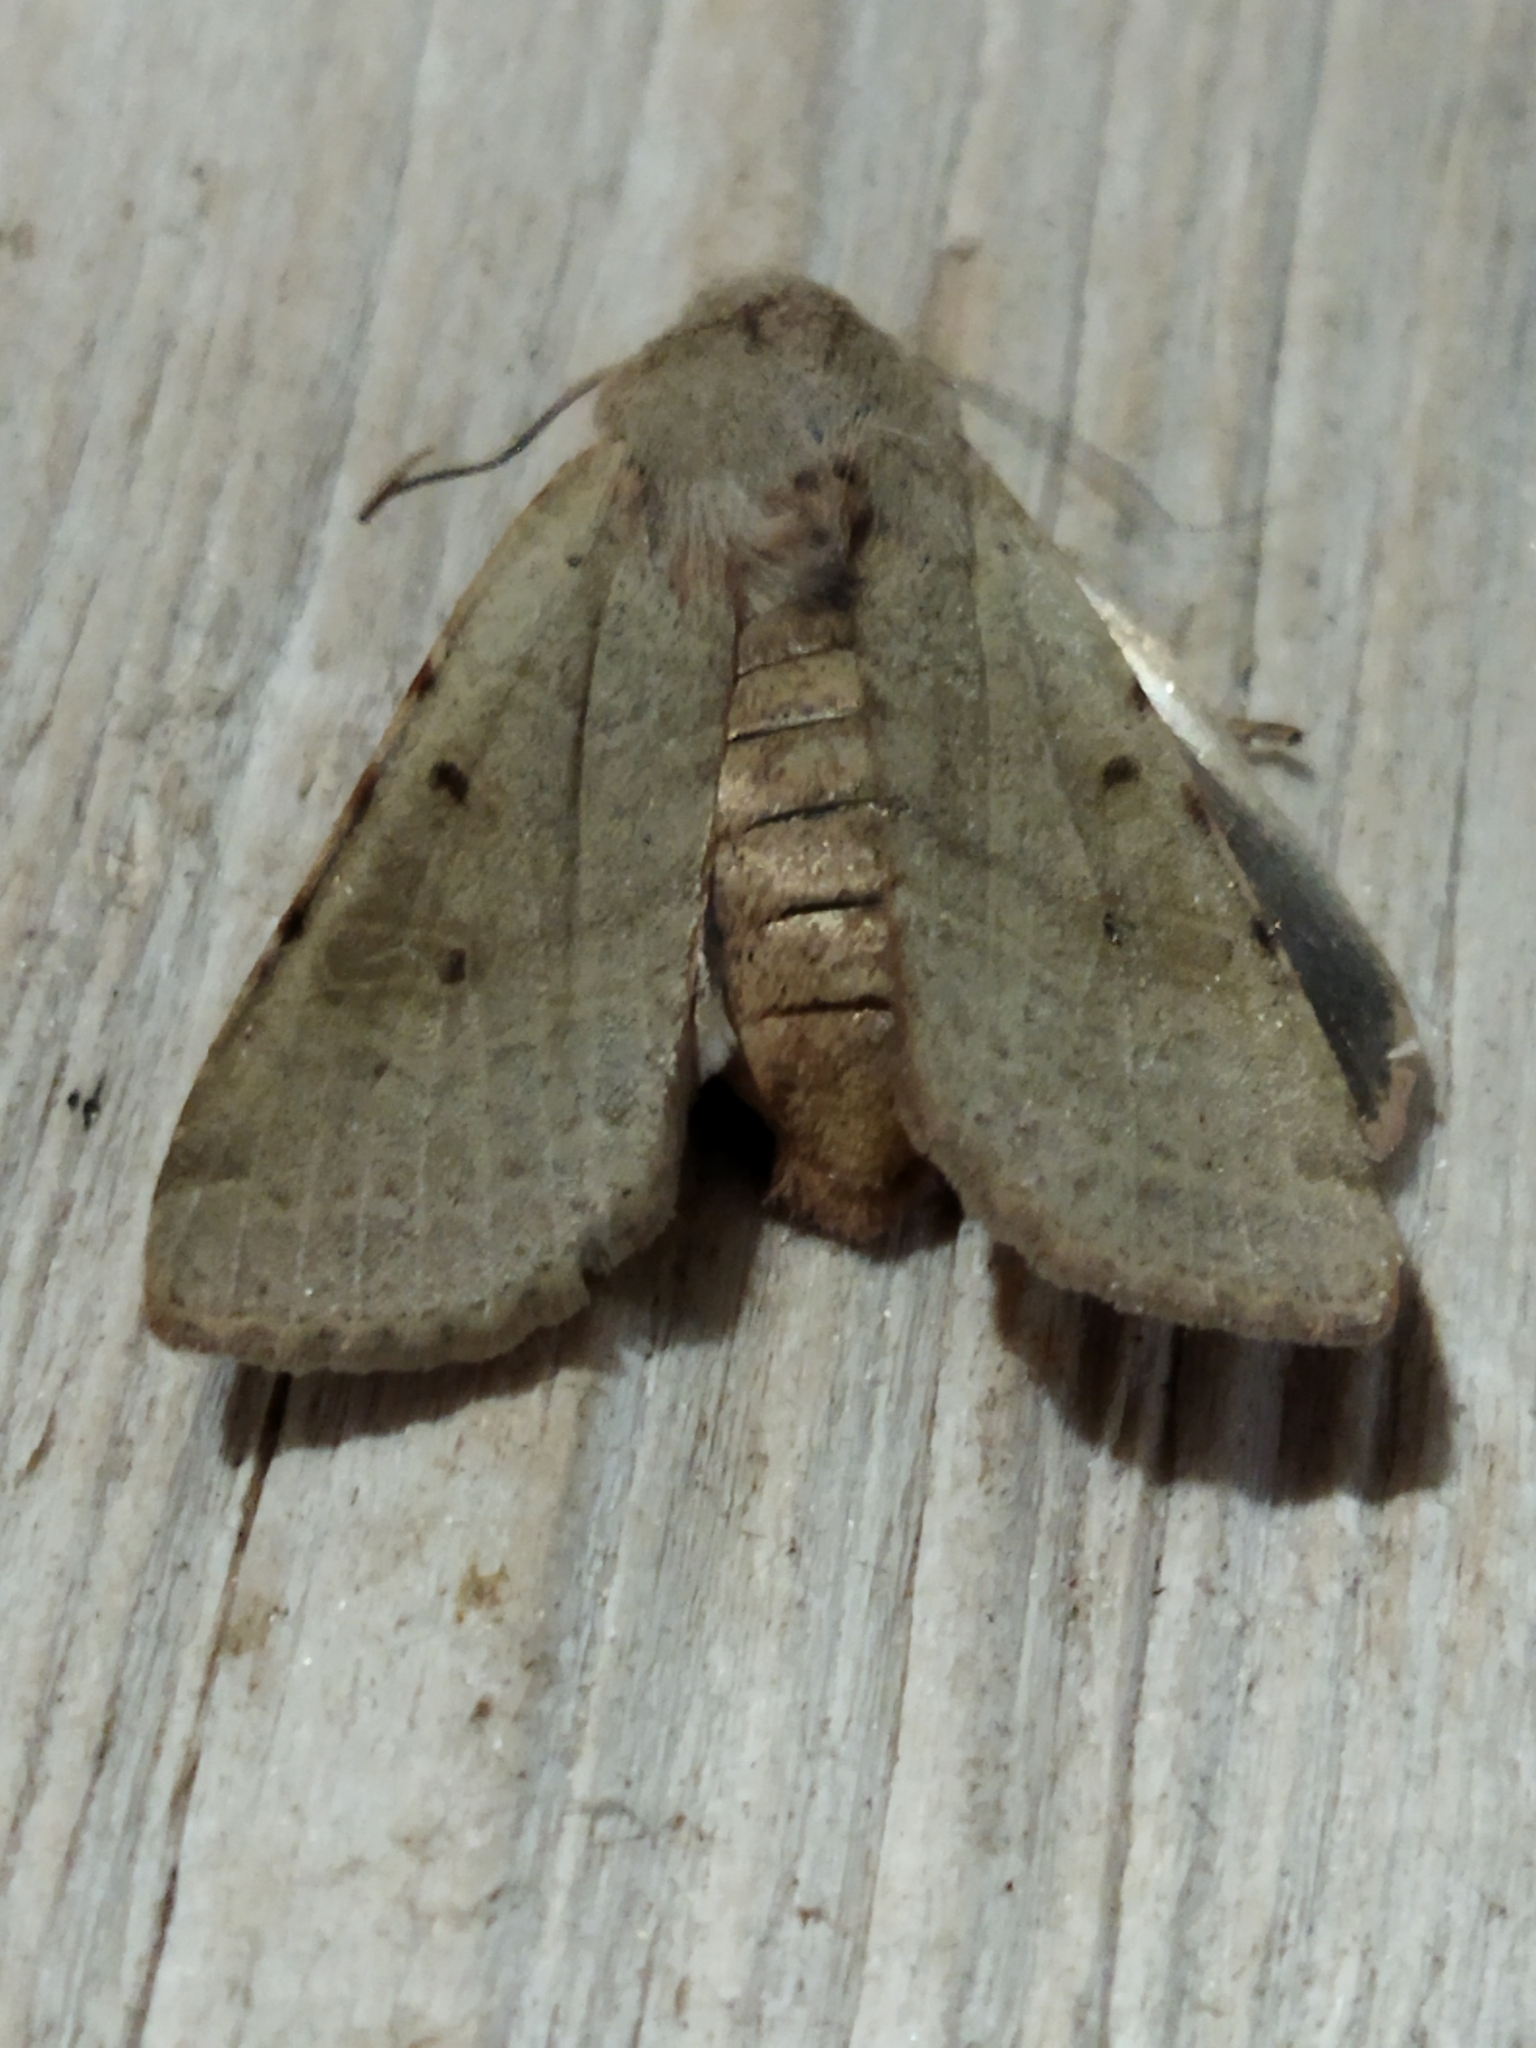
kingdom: Animalia
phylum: Arthropoda
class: Insecta
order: Lepidoptera
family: Noctuidae
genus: Agrochola
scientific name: Agrochola lychnidis
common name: Beaded chestnut
